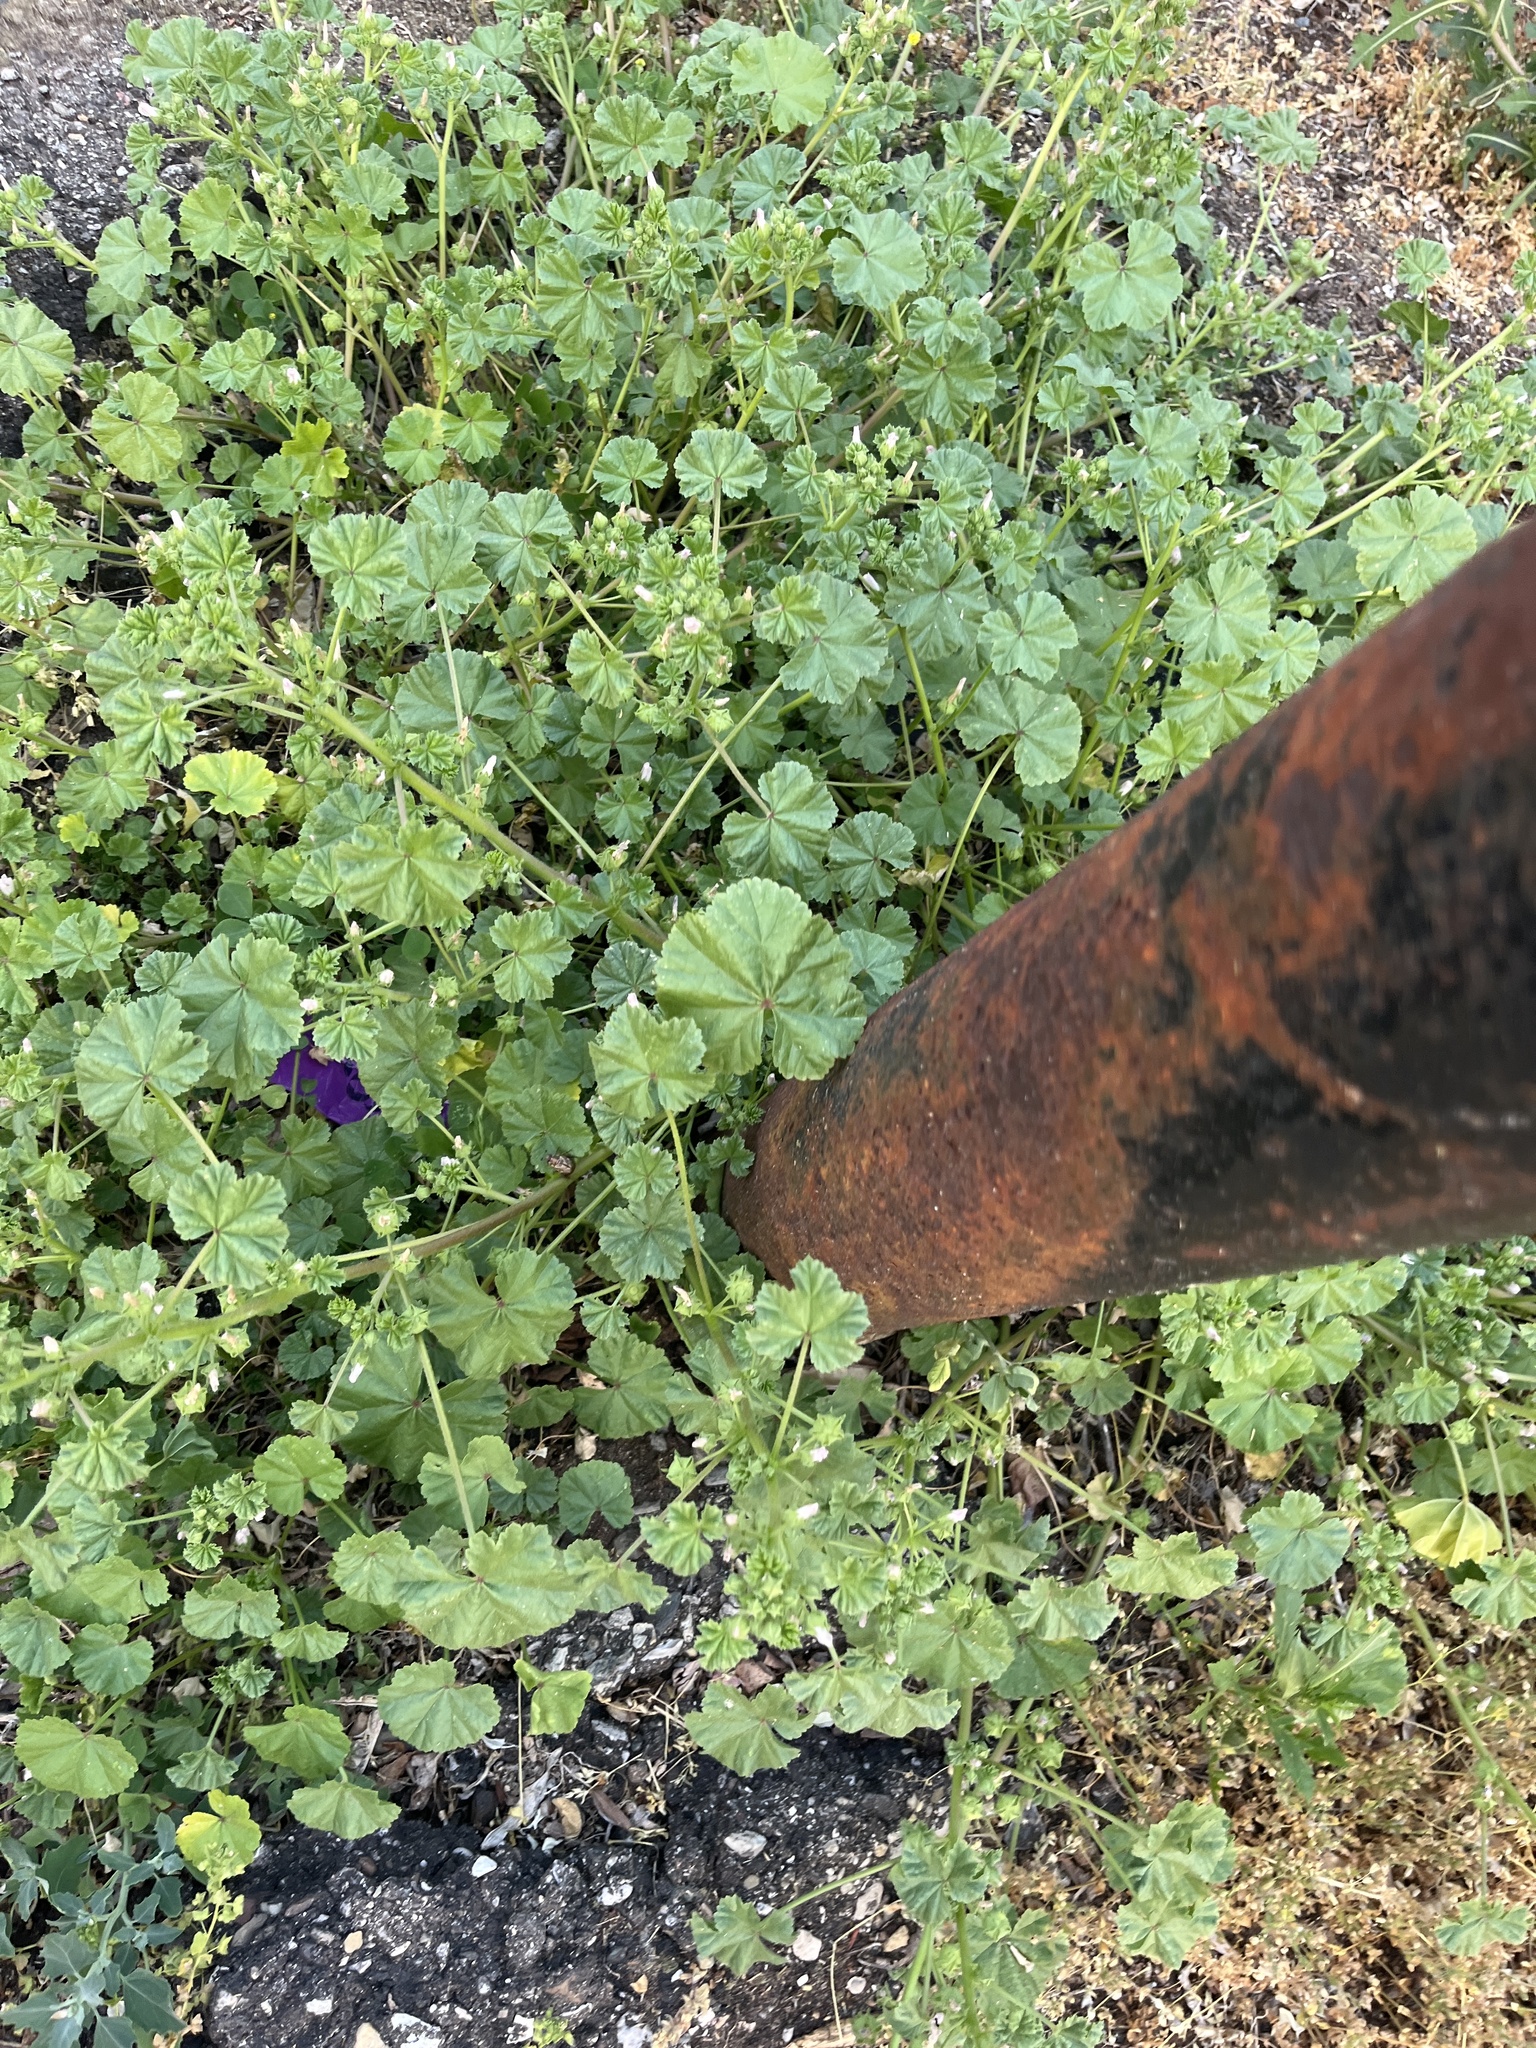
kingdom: Plantae
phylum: Tracheophyta
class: Magnoliopsida
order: Malvales
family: Malvaceae
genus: Malva
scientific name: Malva neglecta
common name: Common mallow
